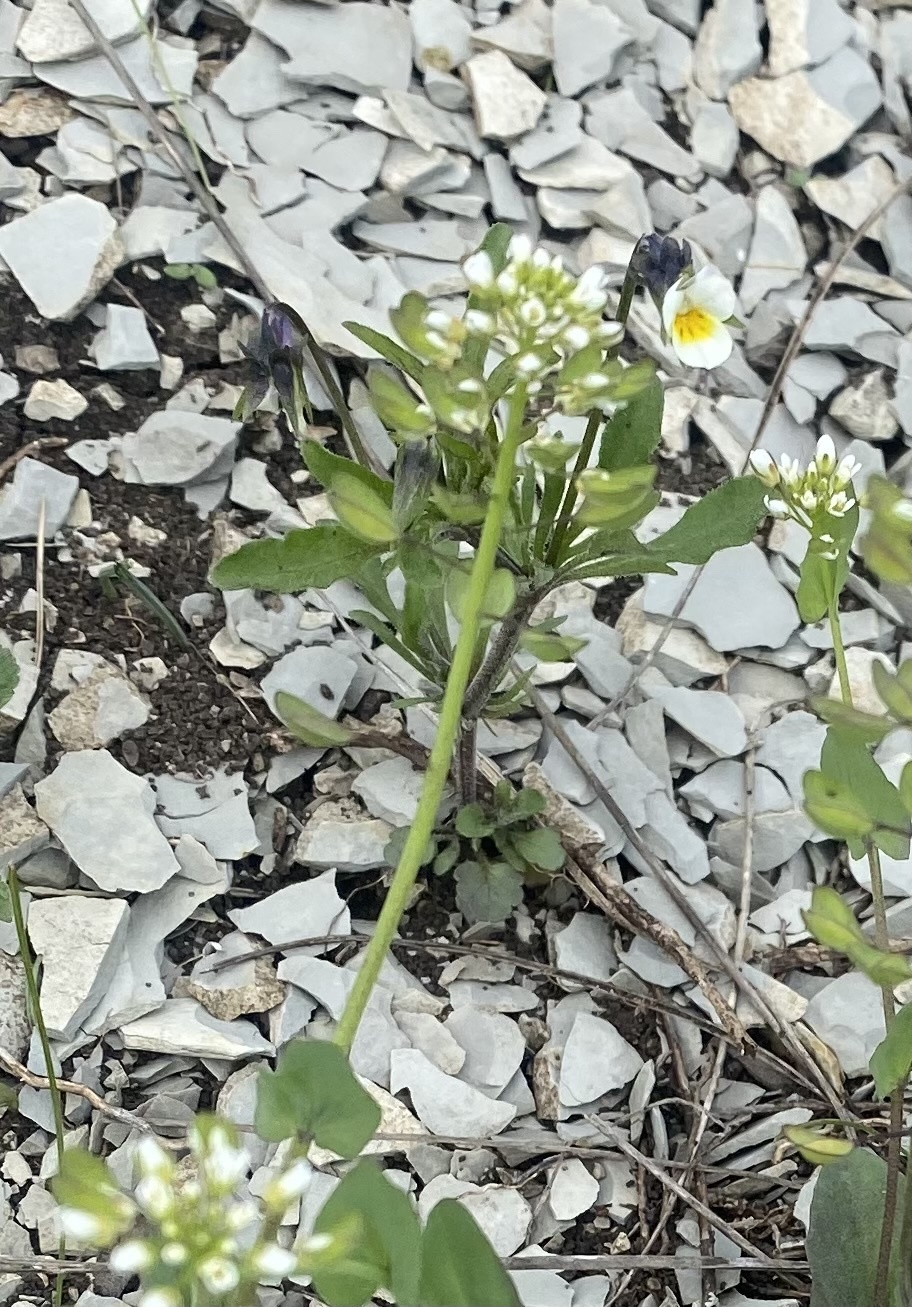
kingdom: Plantae
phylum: Tracheophyta
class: Magnoliopsida
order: Brassicales
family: Brassicaceae
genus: Noccaea
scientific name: Noccaea perfoliata
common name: Perfoliate pennycress
